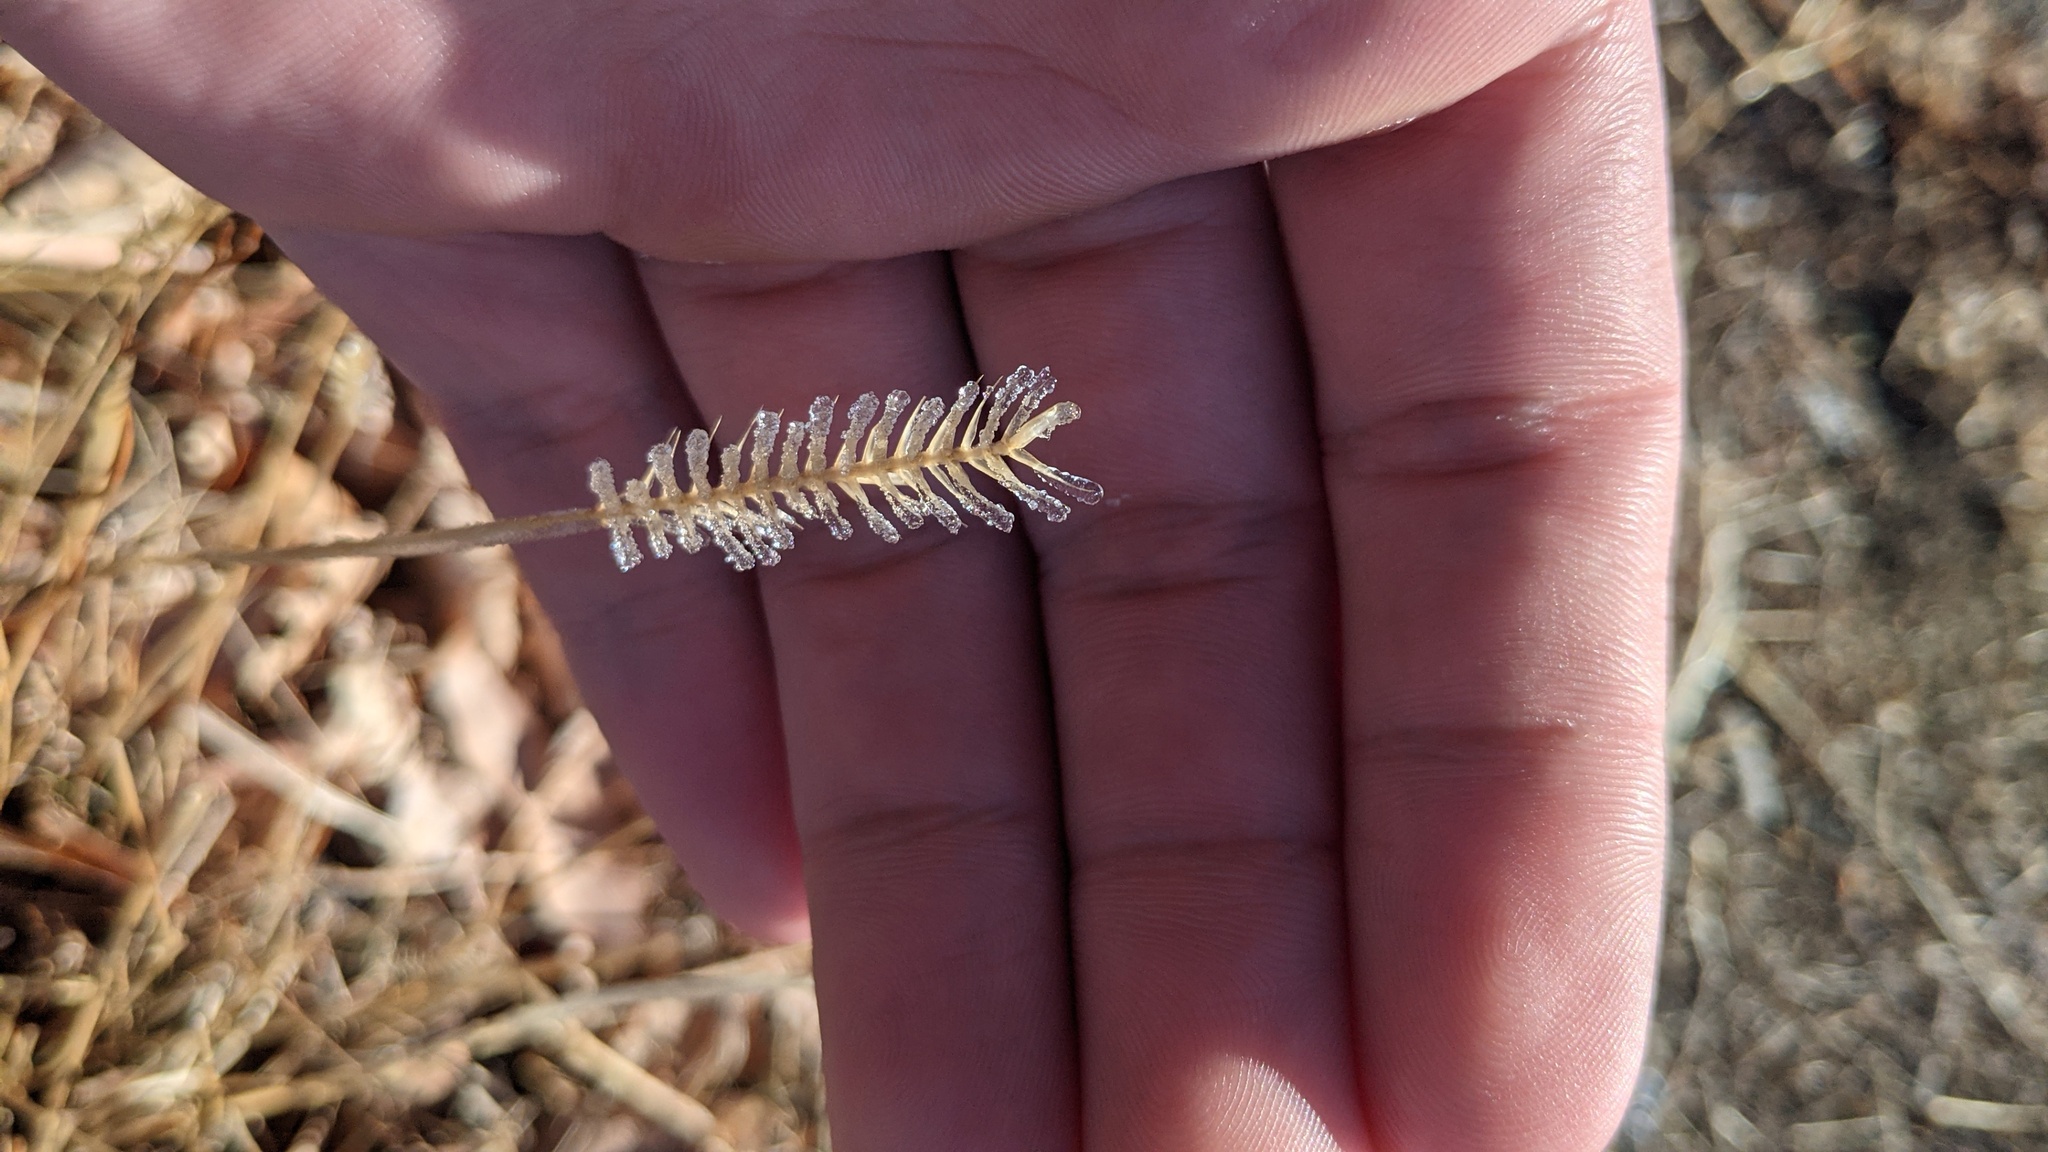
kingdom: Plantae
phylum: Tracheophyta
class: Liliopsida
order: Poales
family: Poaceae
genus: Agropyron
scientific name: Agropyron cristatum
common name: Crested wheatgrass
